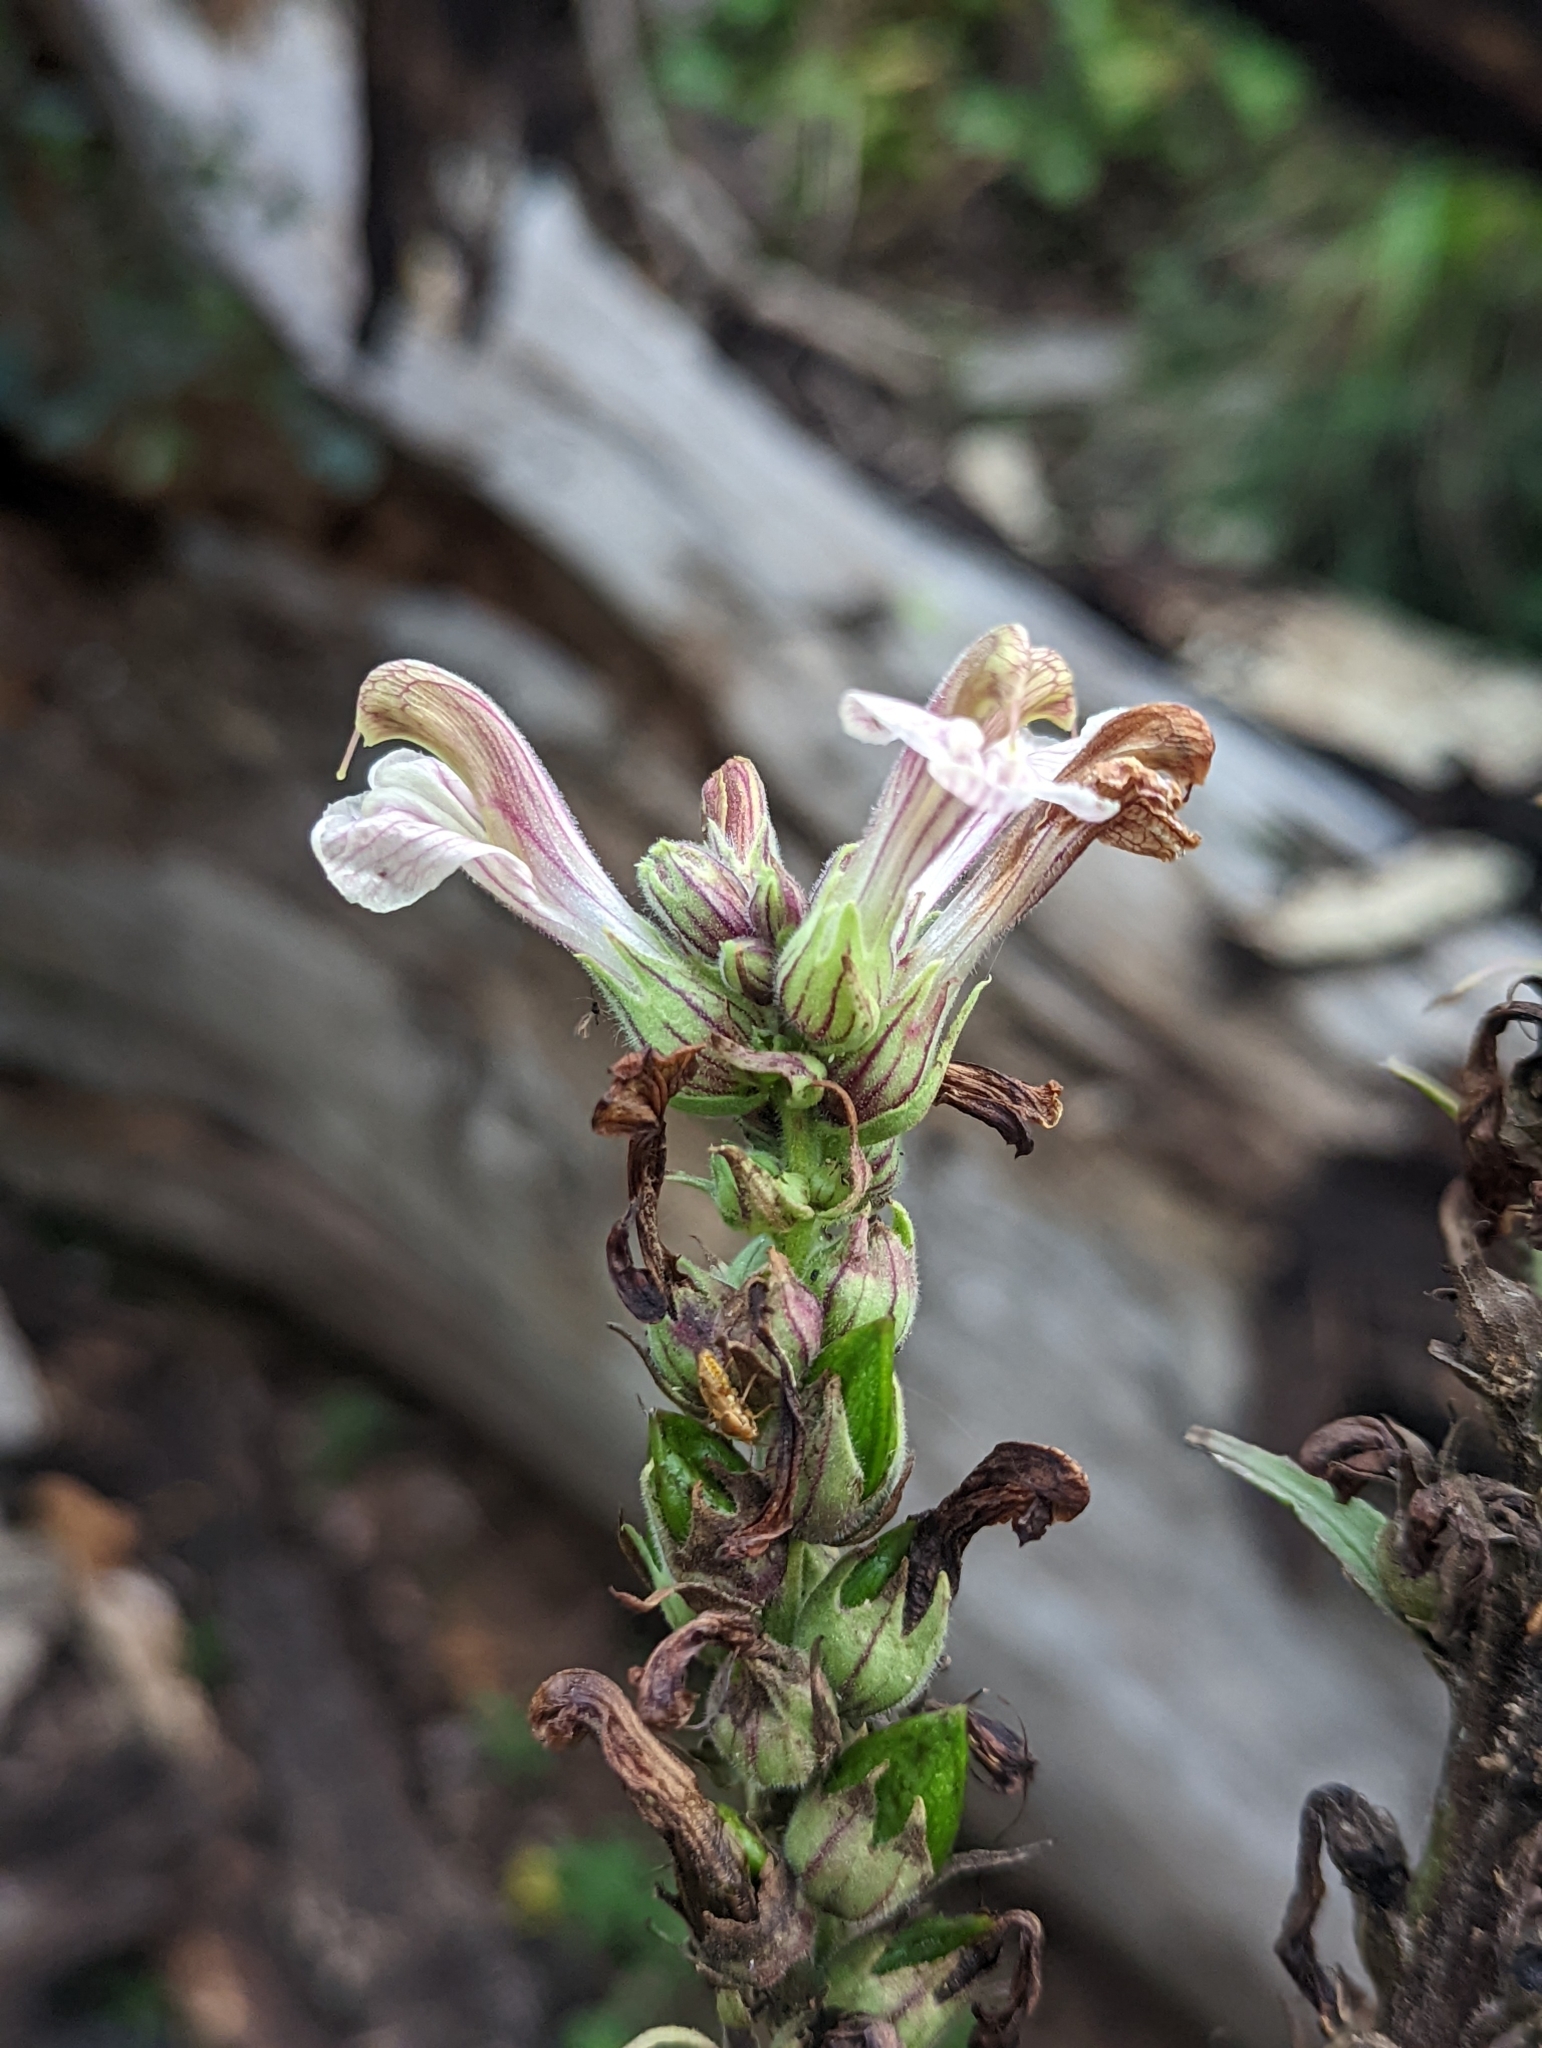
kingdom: Plantae
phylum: Tracheophyta
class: Magnoliopsida
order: Lamiales
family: Orobanchaceae
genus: Pedicularis
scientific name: Pedicularis procera
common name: Gray's lousewort
